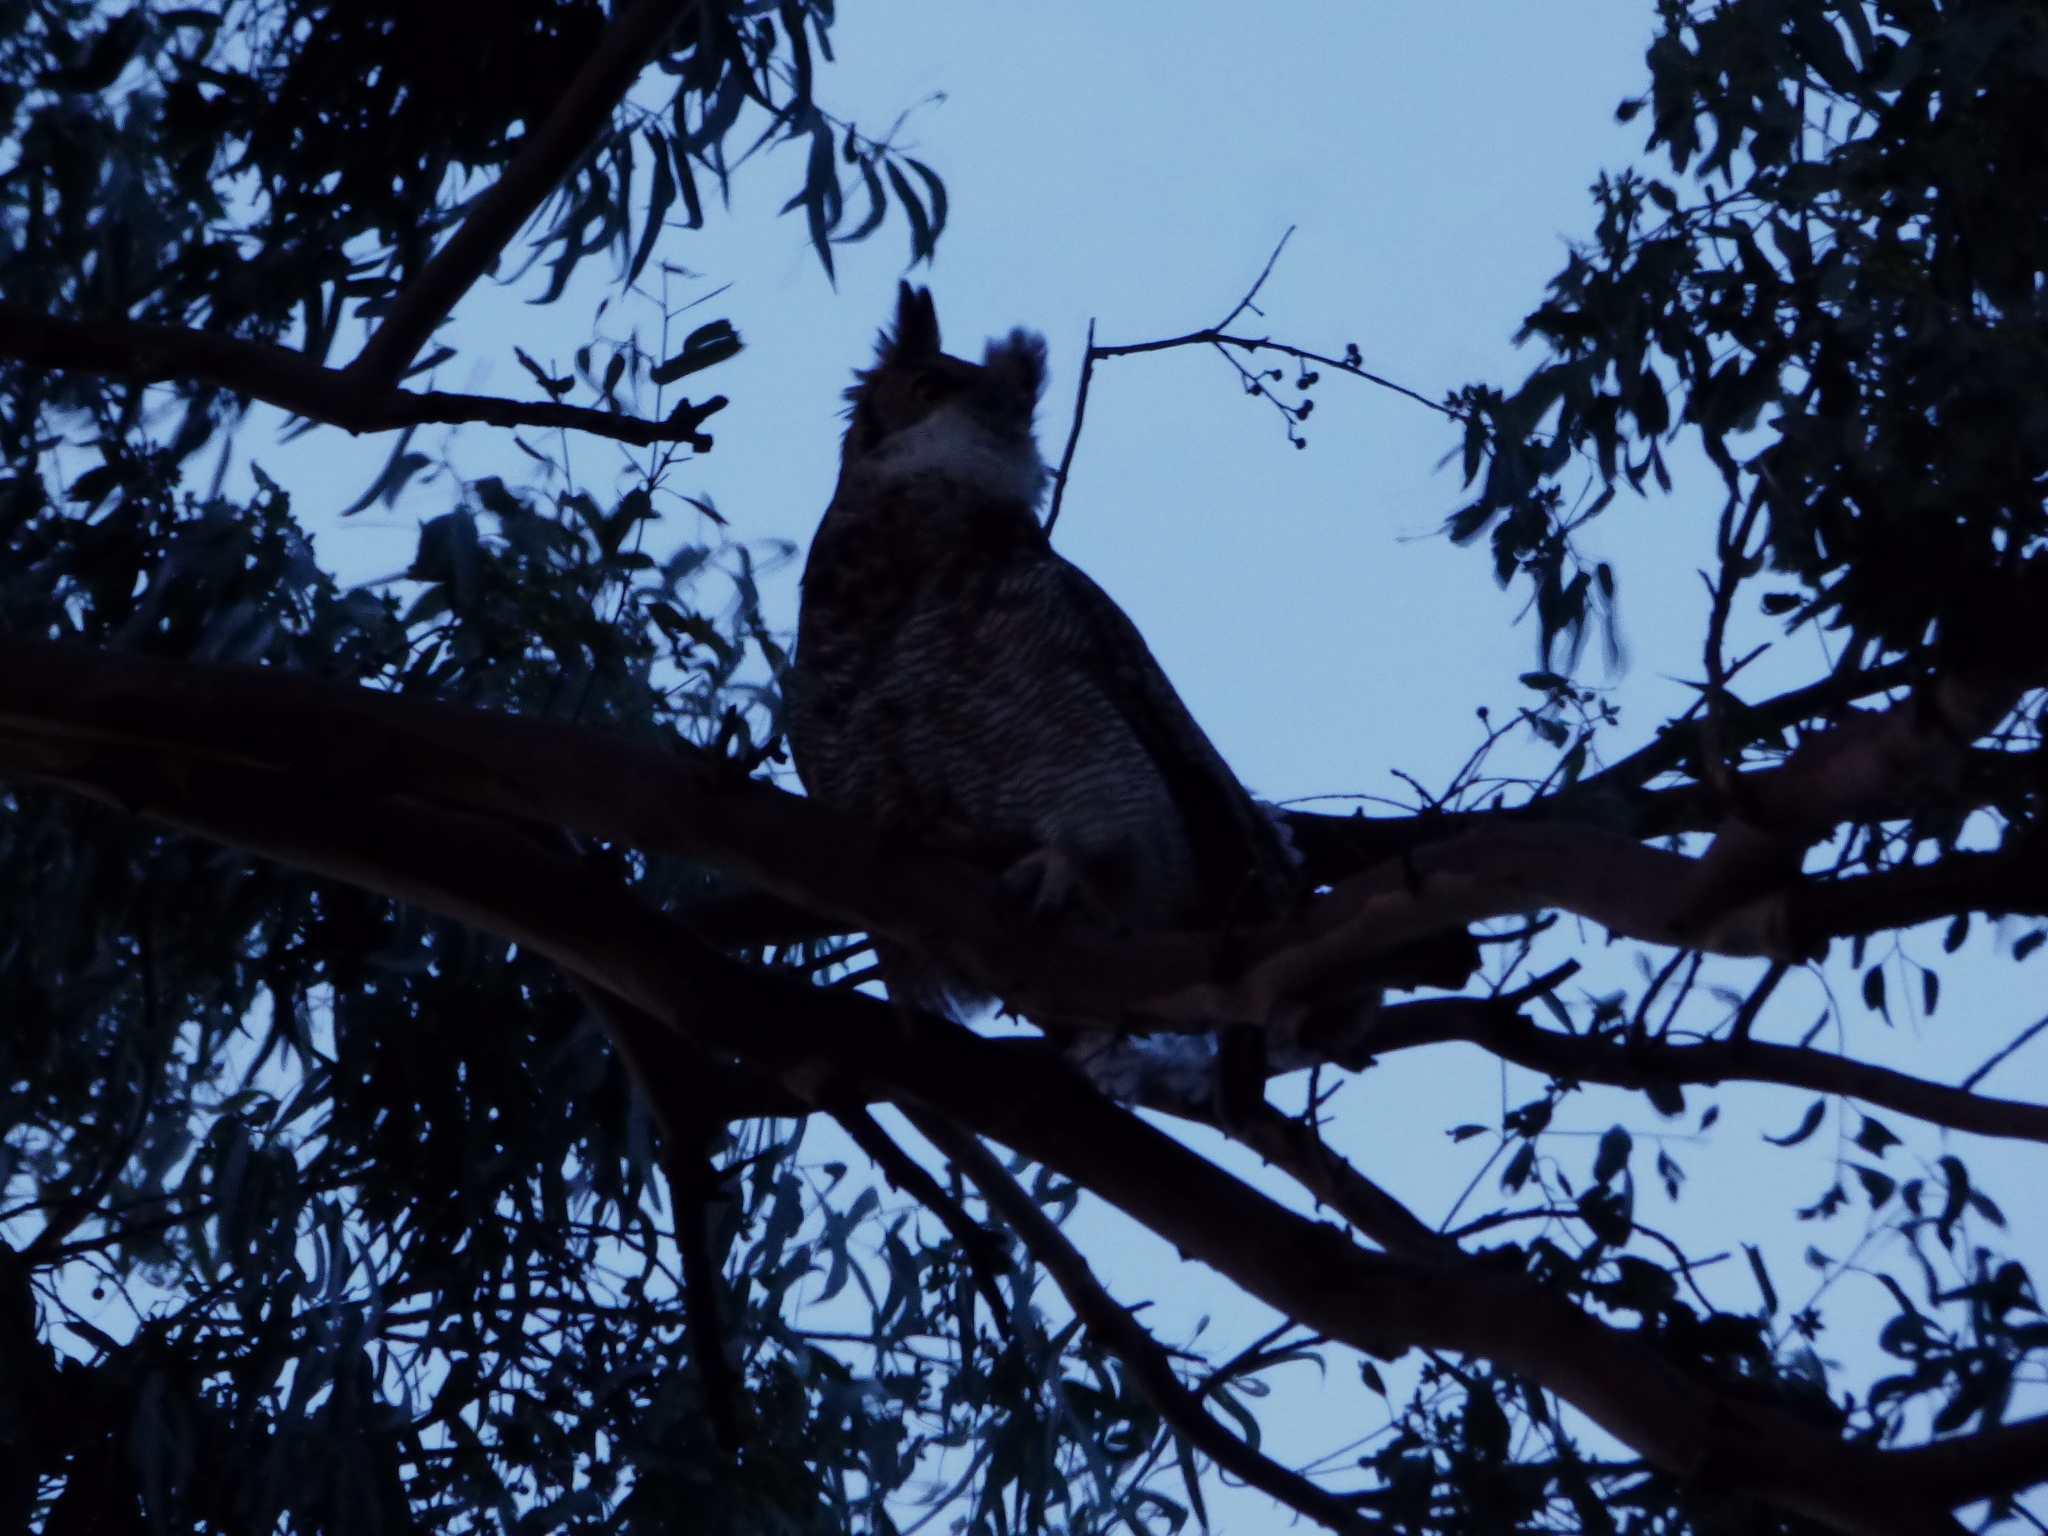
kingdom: Animalia
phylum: Chordata
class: Aves
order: Strigiformes
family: Strigidae
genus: Bubo
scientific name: Bubo virginianus
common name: Great horned owl
